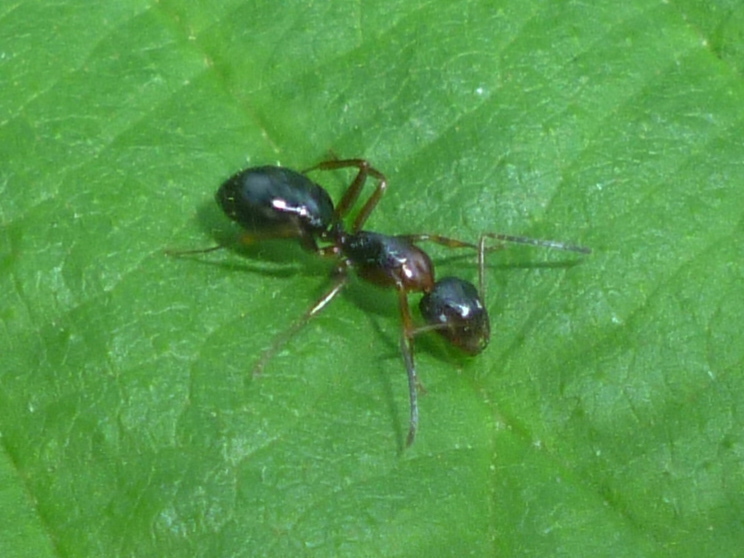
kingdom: Animalia
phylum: Arthropoda
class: Insecta
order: Hymenoptera
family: Formicidae
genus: Camponotus
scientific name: Camponotus nearcticus
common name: Smaller carpenter ant
